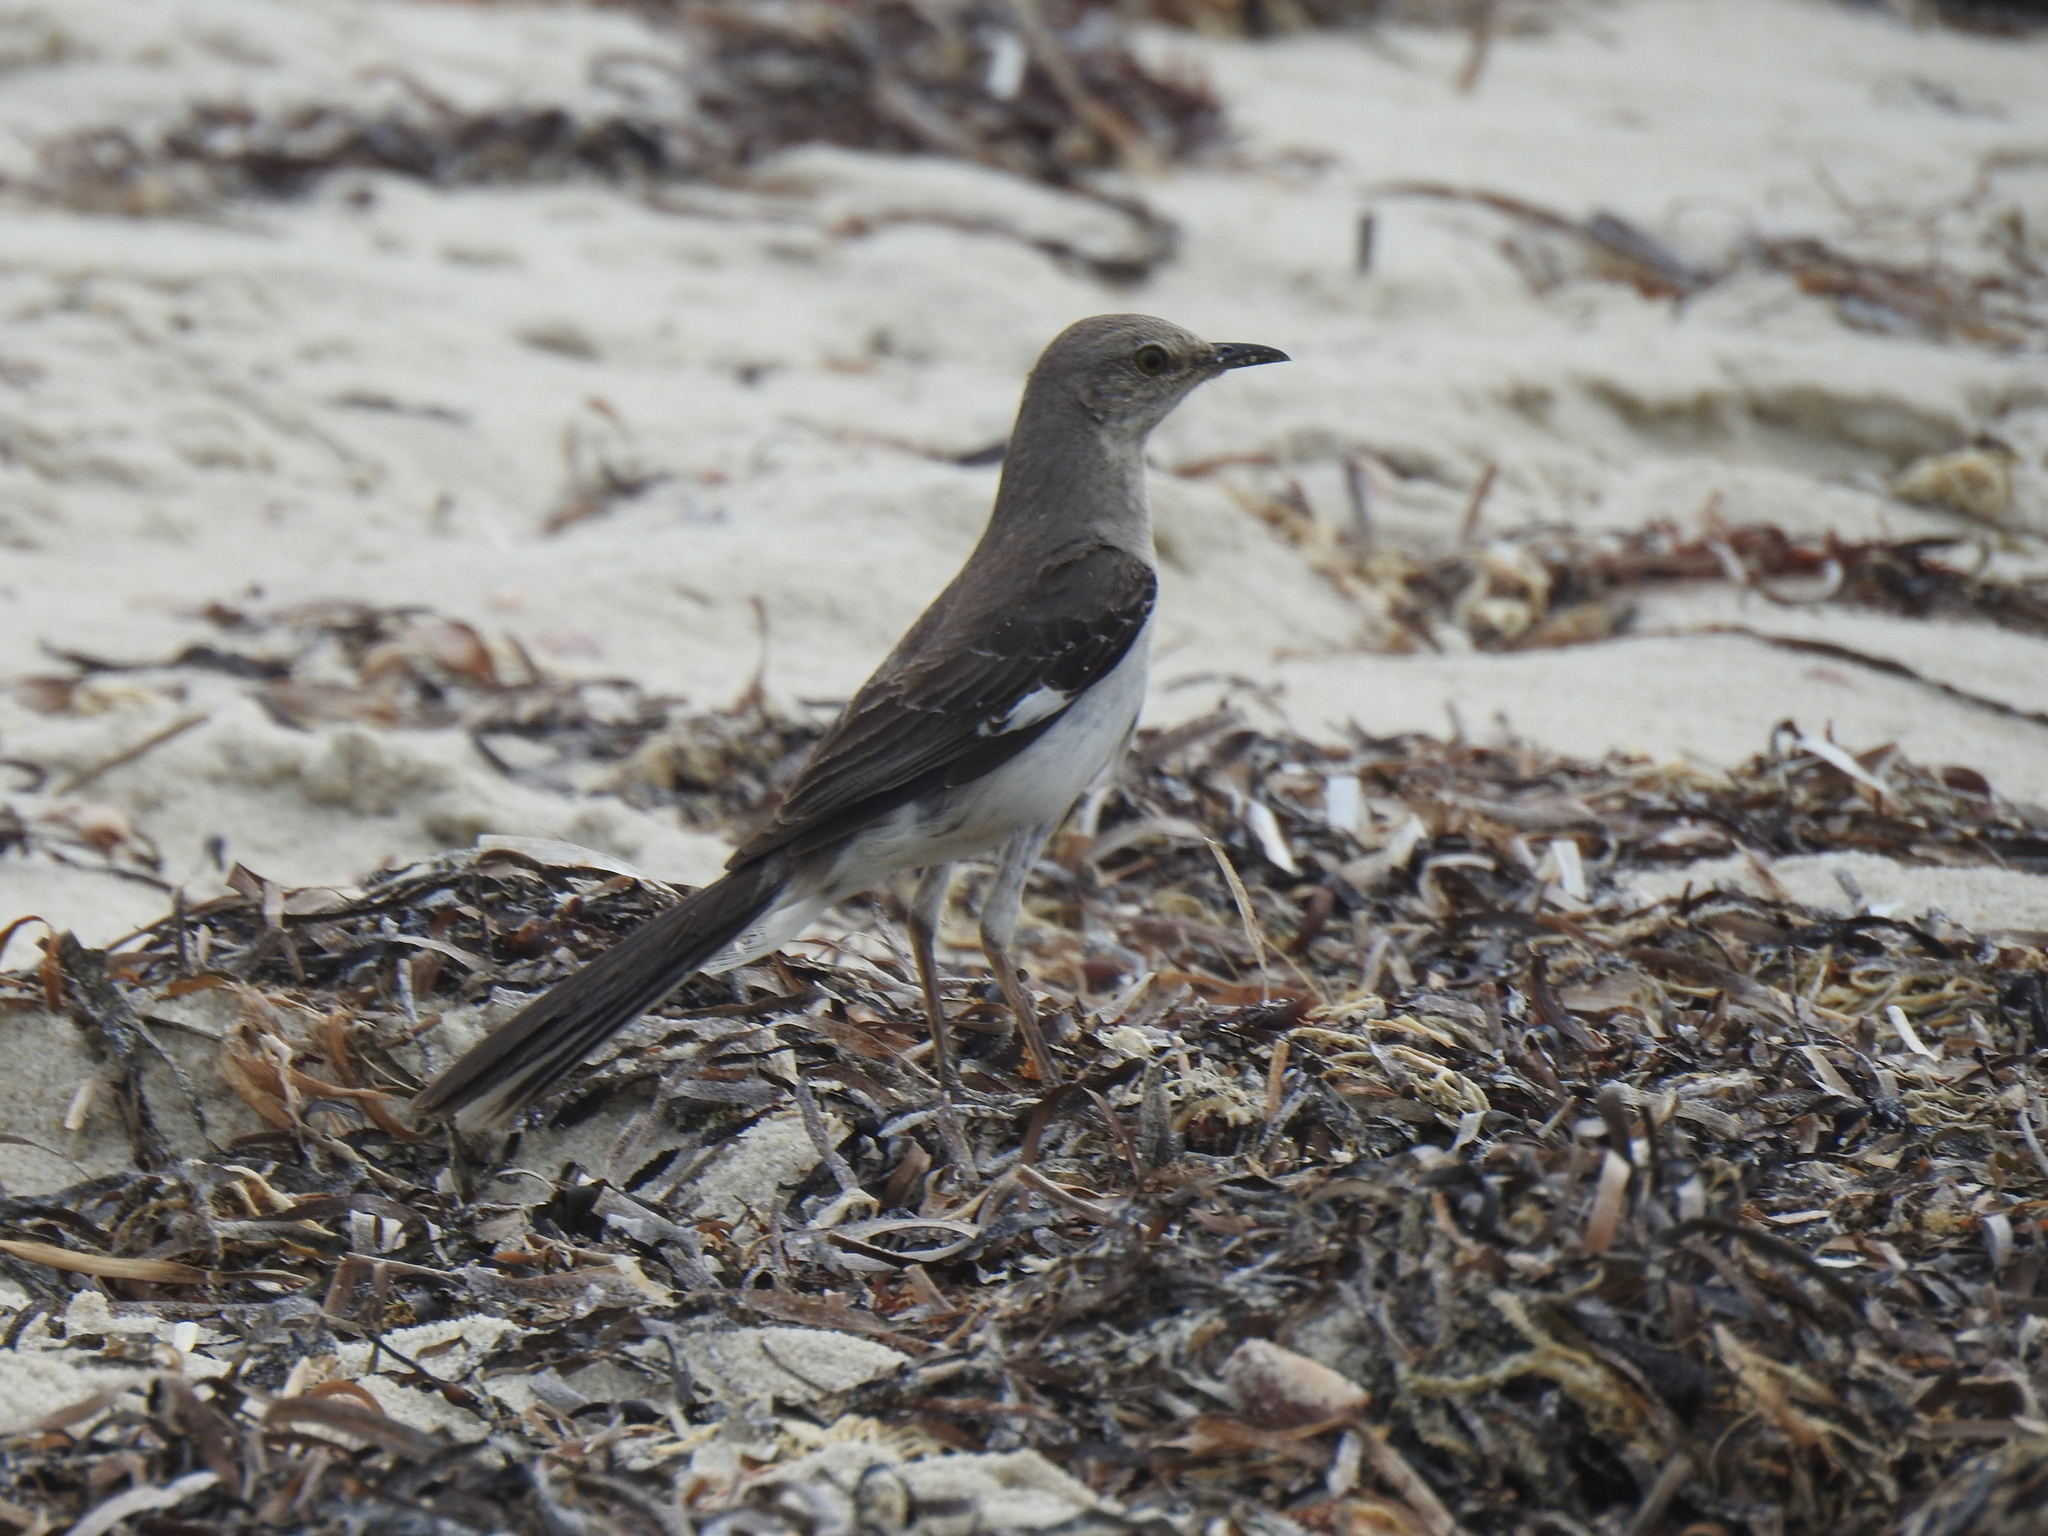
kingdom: Animalia
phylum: Chordata
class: Aves
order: Passeriformes
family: Mimidae
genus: Mimus
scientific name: Mimus polyglottos
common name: Northern mockingbird
